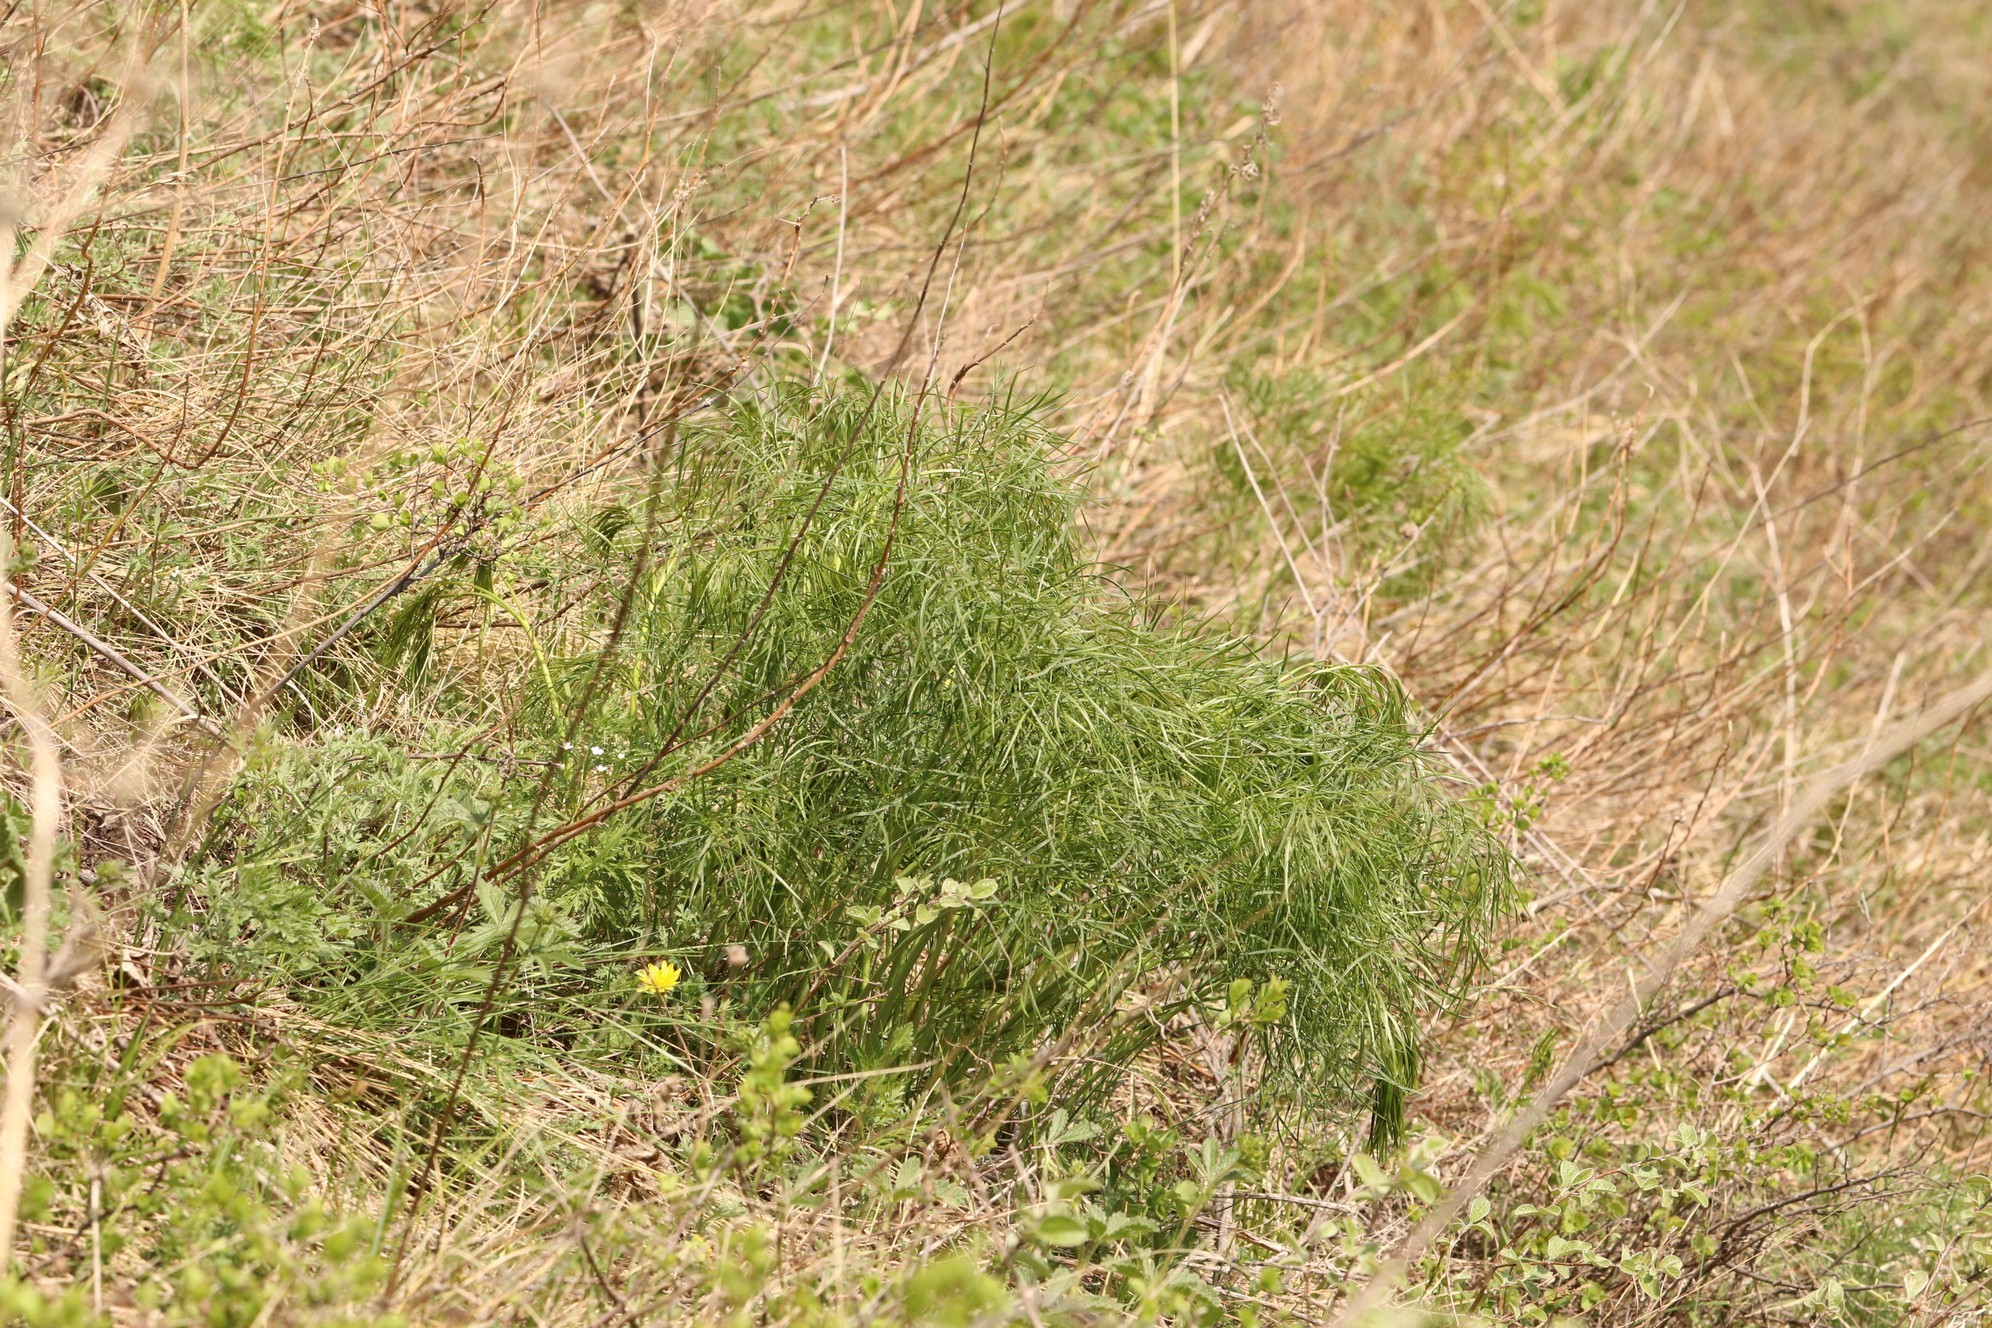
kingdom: Plantae
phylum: Tracheophyta
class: Magnoliopsida
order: Apiales
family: Apiaceae
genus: Peucedanum
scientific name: Peucedanum morisonii
